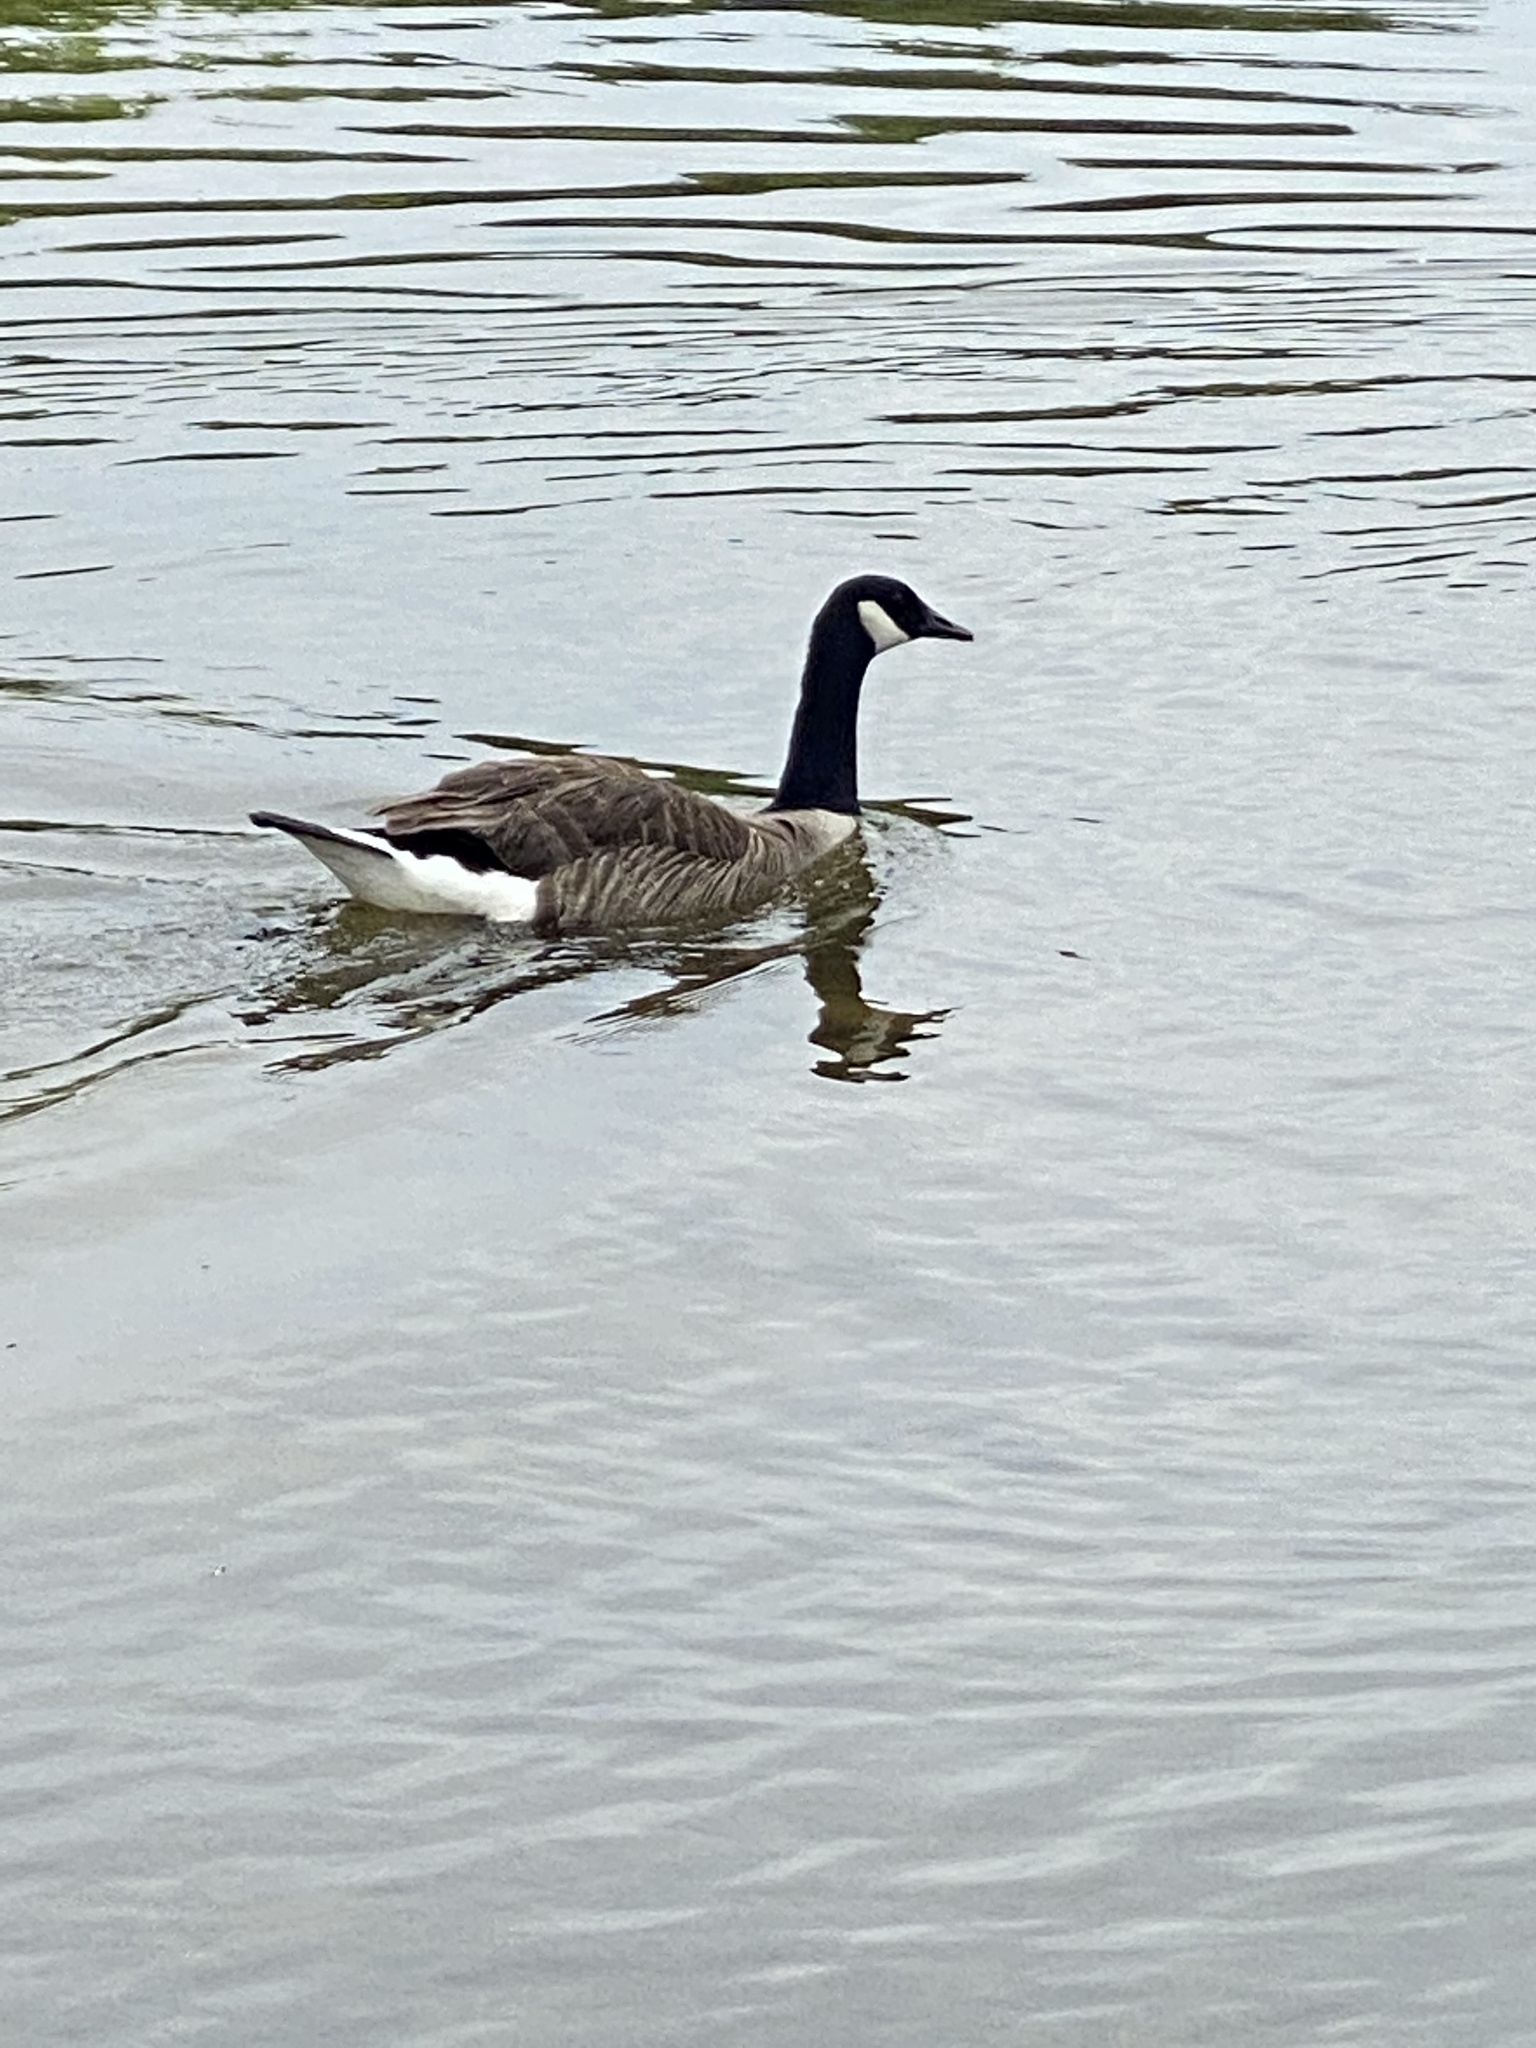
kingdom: Animalia
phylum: Chordata
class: Aves
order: Anseriformes
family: Anatidae
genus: Branta
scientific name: Branta canadensis
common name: Canada goose
